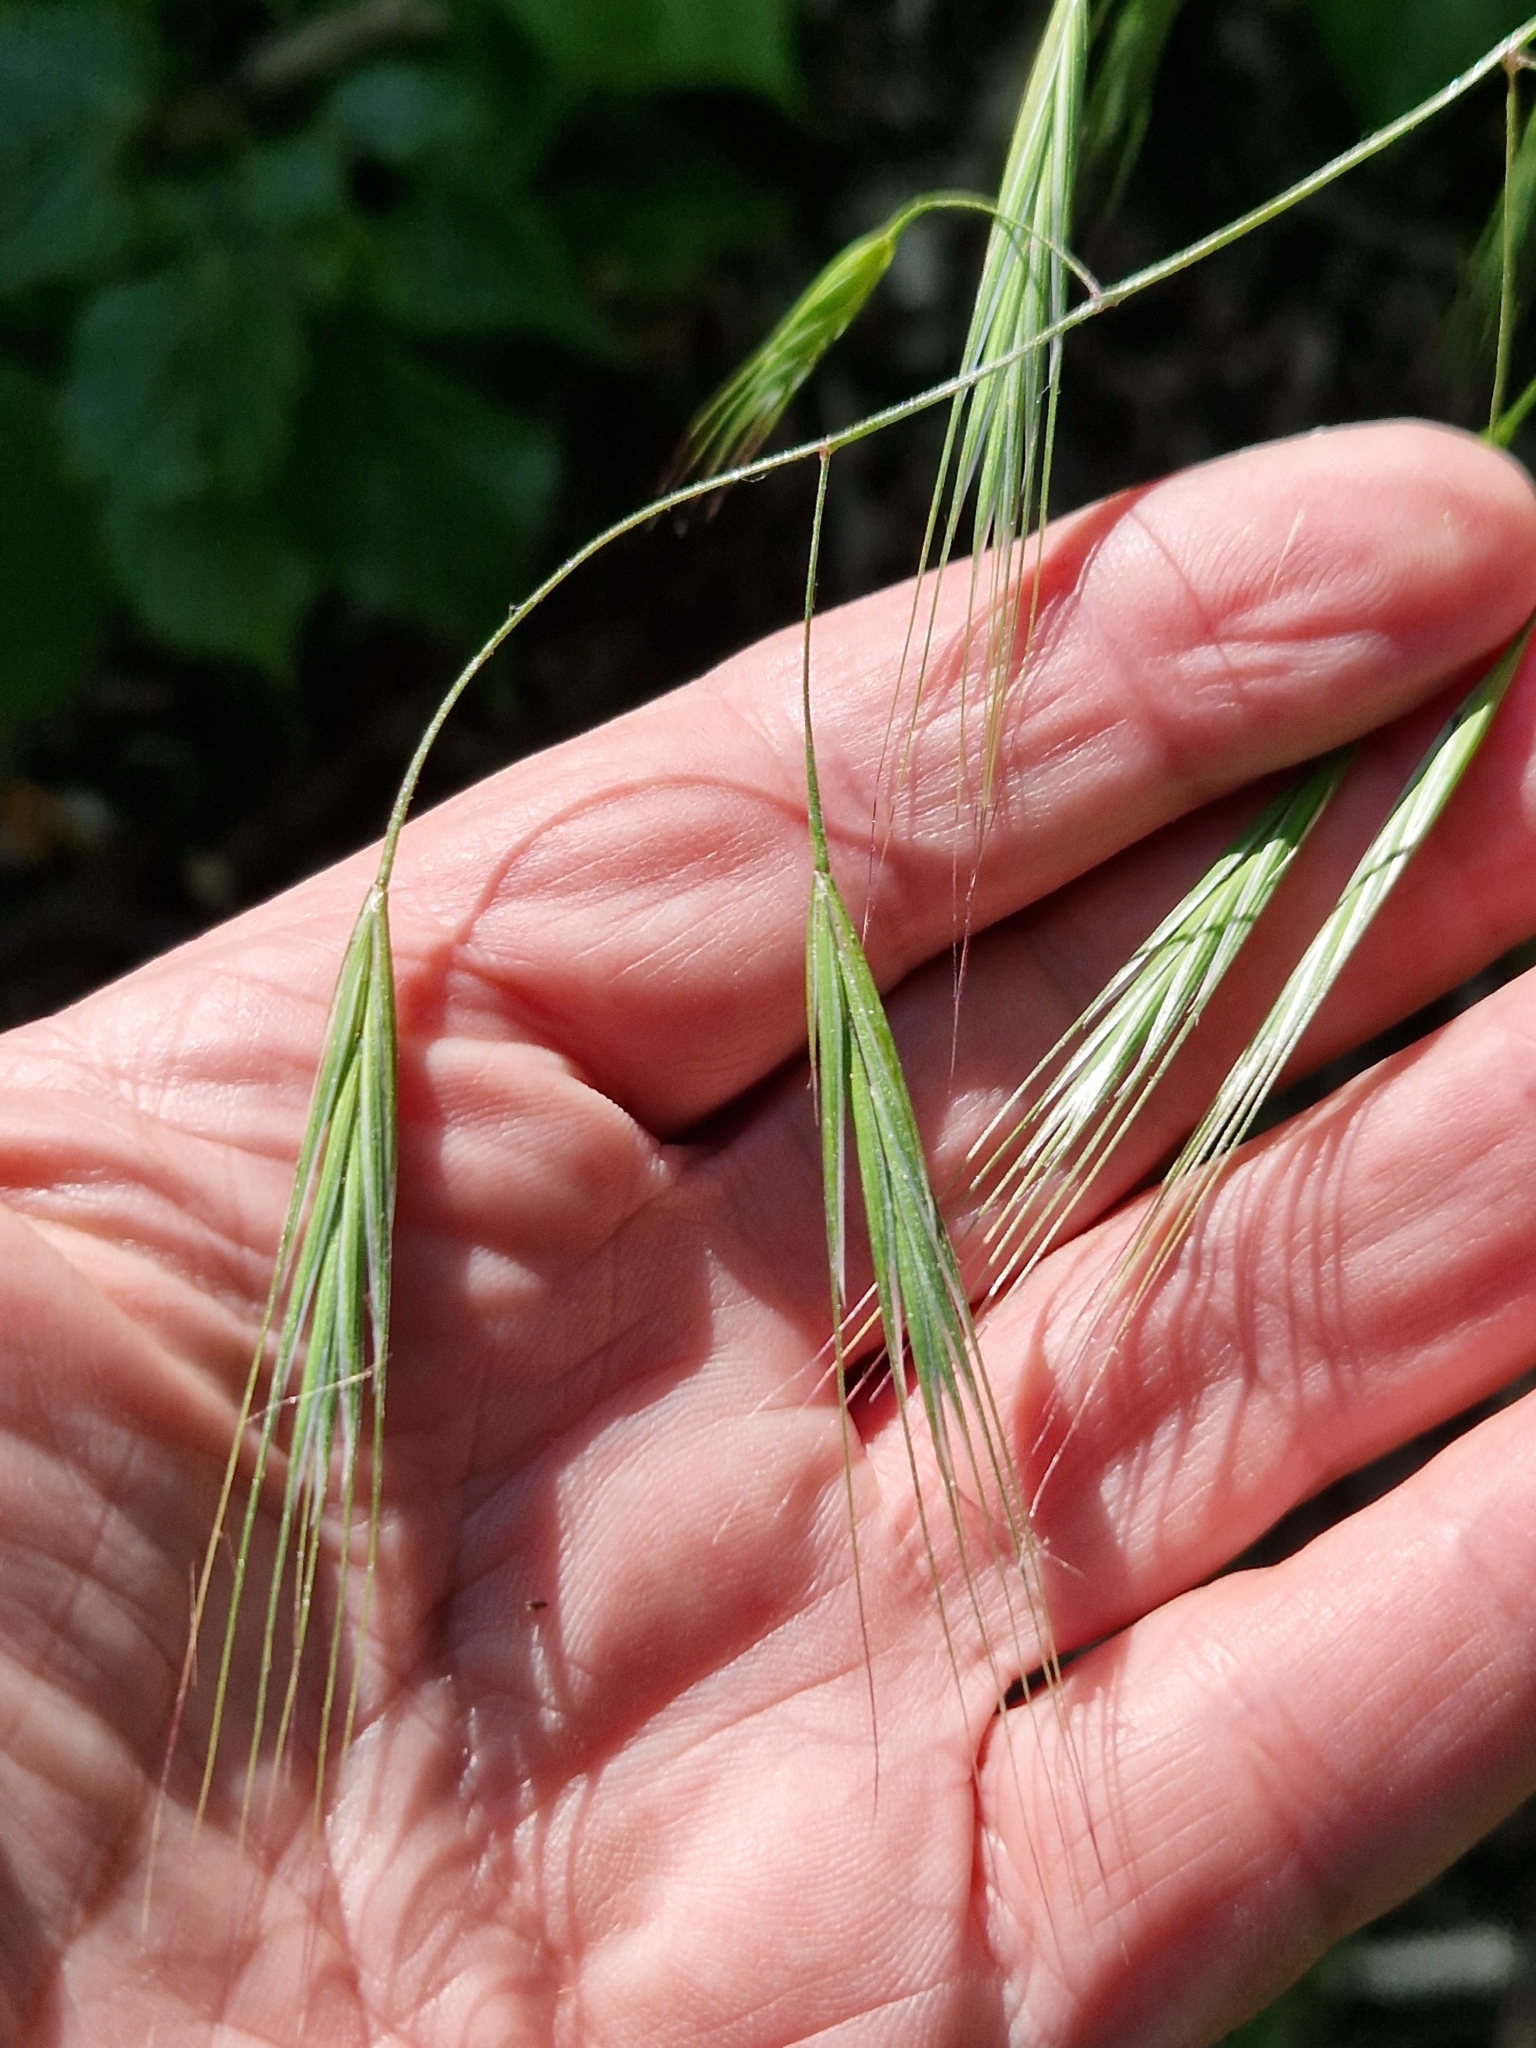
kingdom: Plantae
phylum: Tracheophyta
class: Liliopsida
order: Poales
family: Poaceae
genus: Bromus
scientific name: Bromus sterilis
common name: Poverty brome
